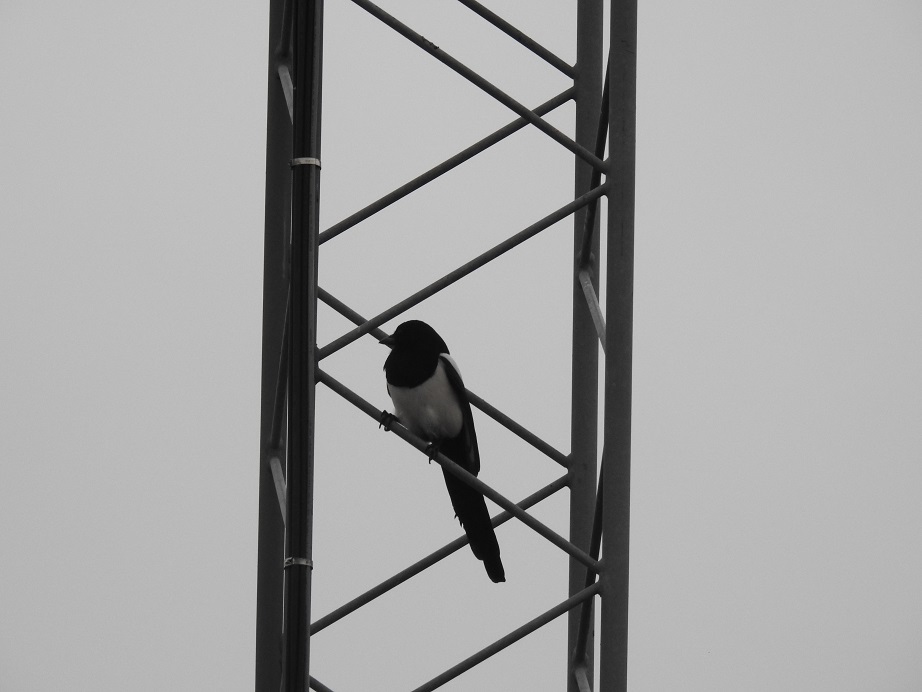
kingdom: Animalia
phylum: Chordata
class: Aves
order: Passeriformes
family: Corvidae
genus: Pica
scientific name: Pica pica
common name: Eurasian magpie
